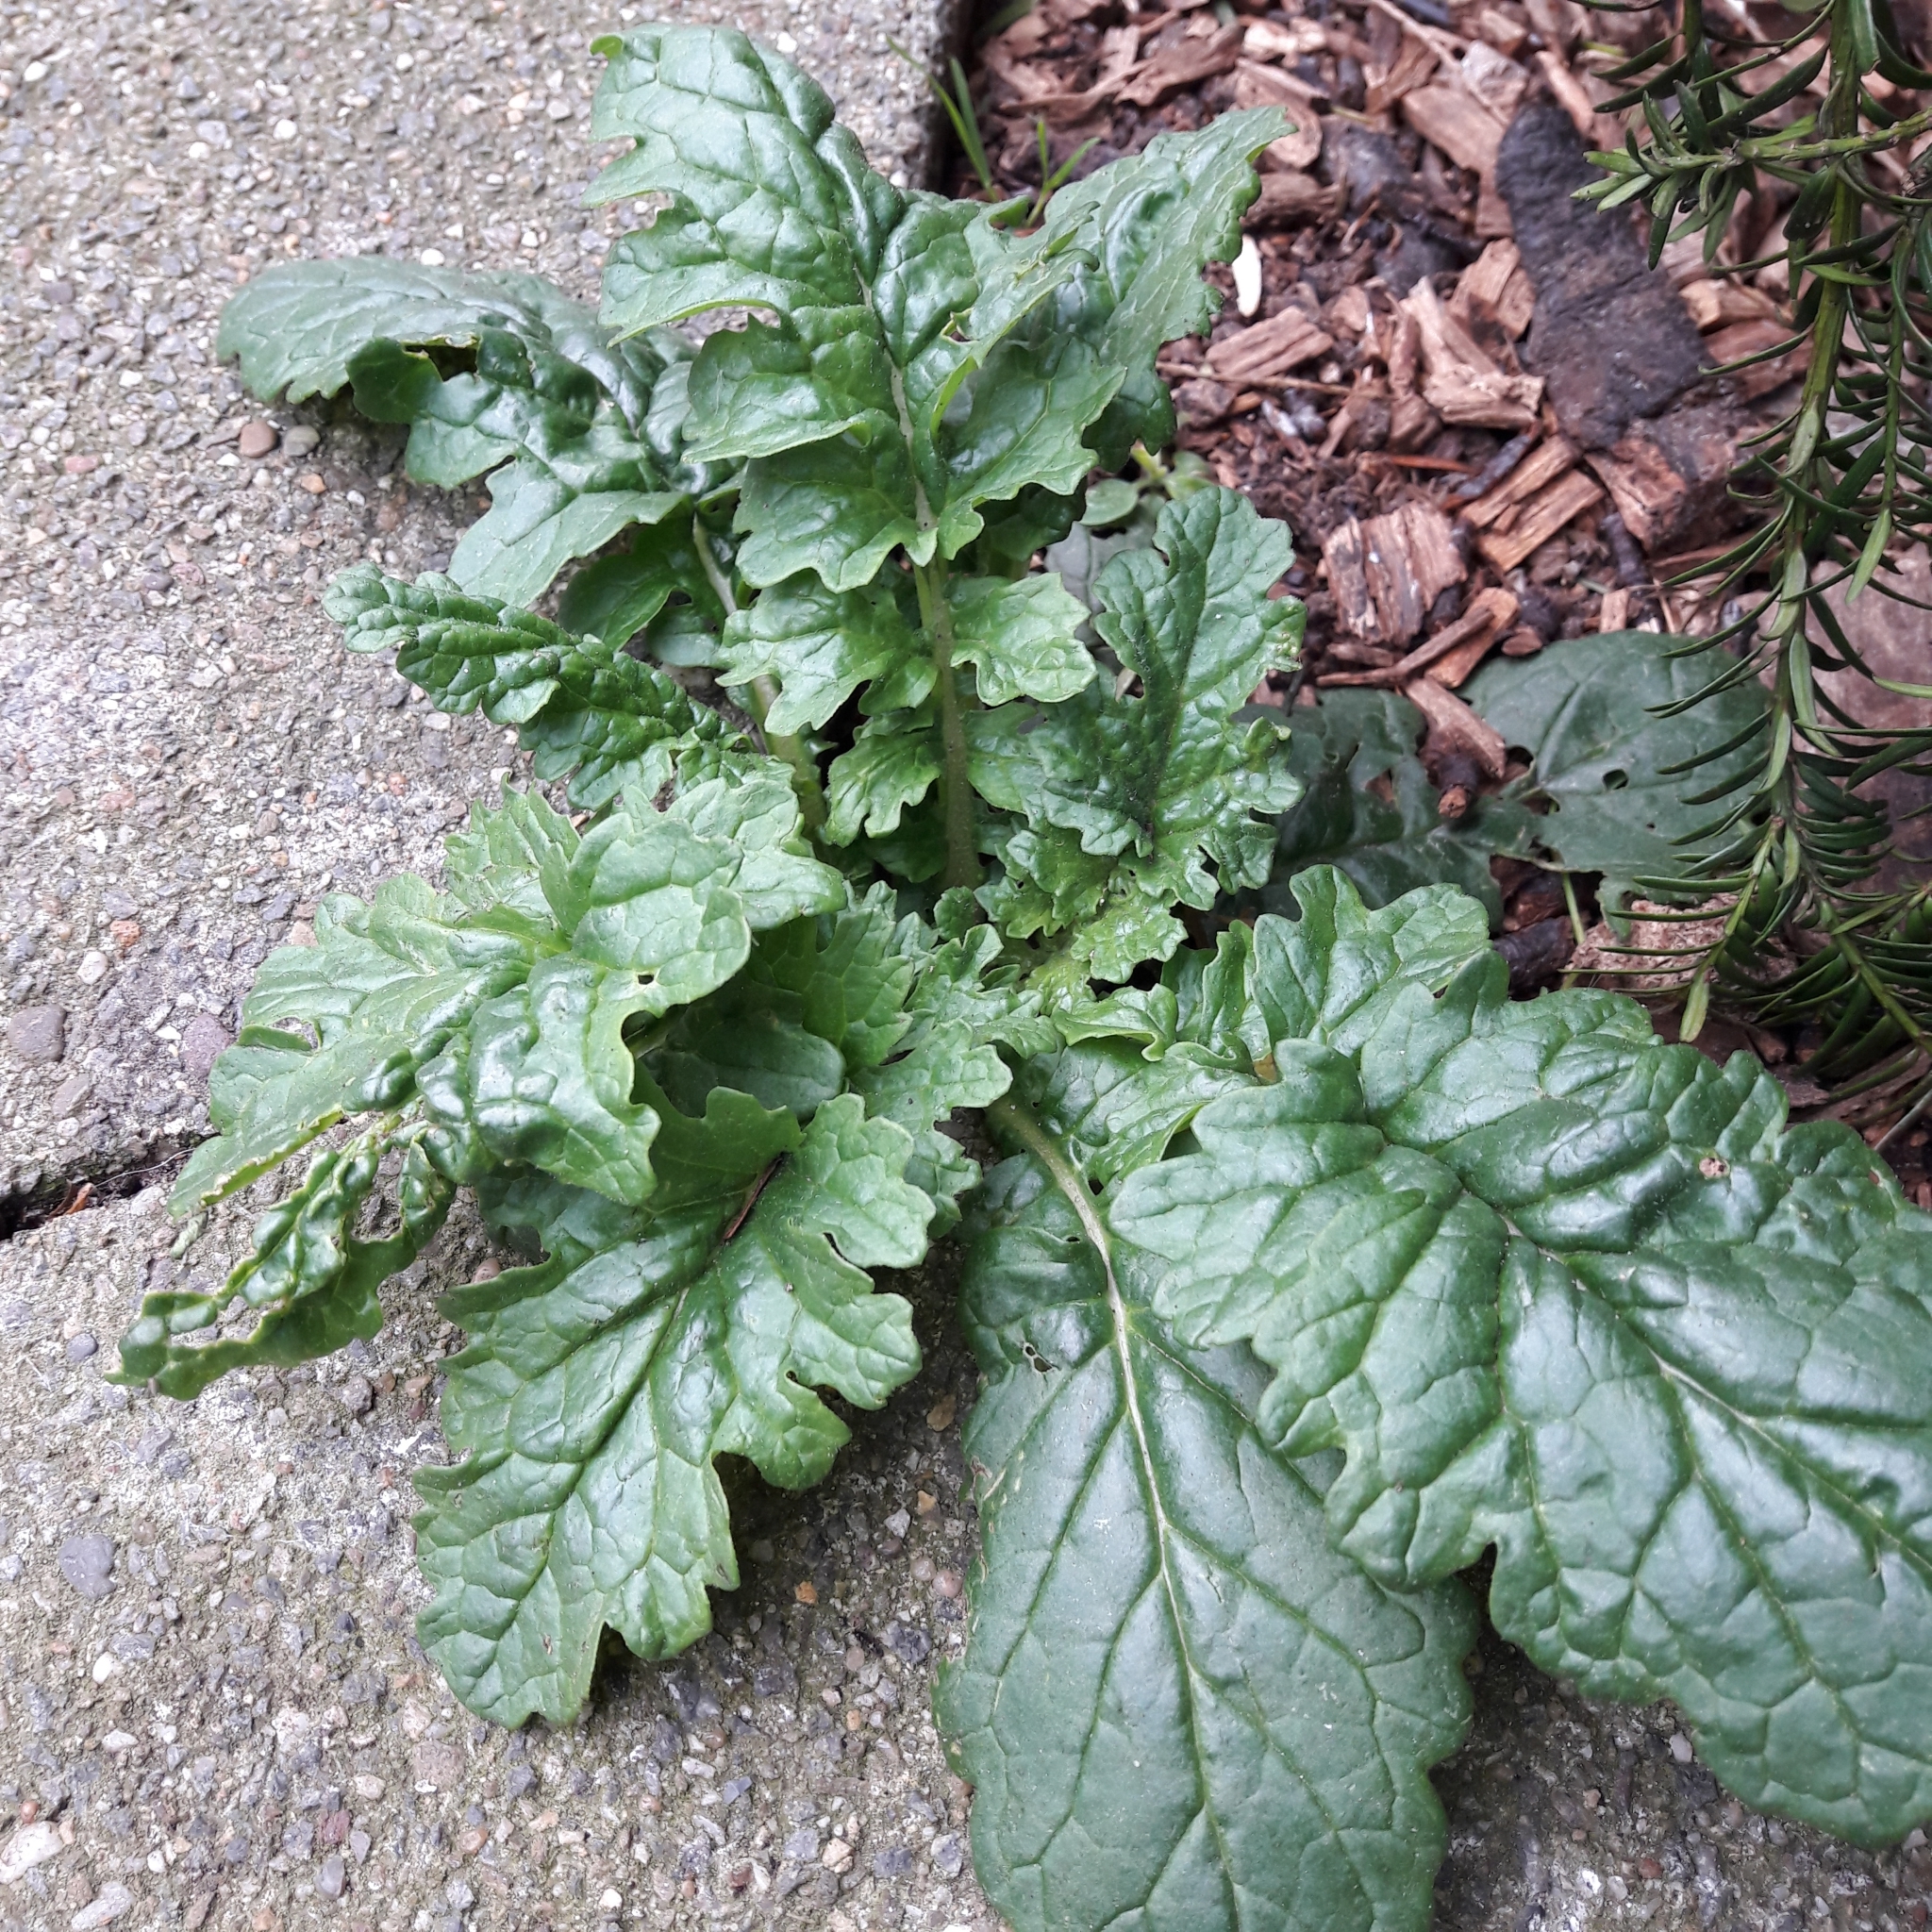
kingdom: Plantae
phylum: Tracheophyta
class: Magnoliopsida
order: Asterales
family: Asteraceae
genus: Jacobaea
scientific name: Jacobaea vulgaris
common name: Stinking willie
